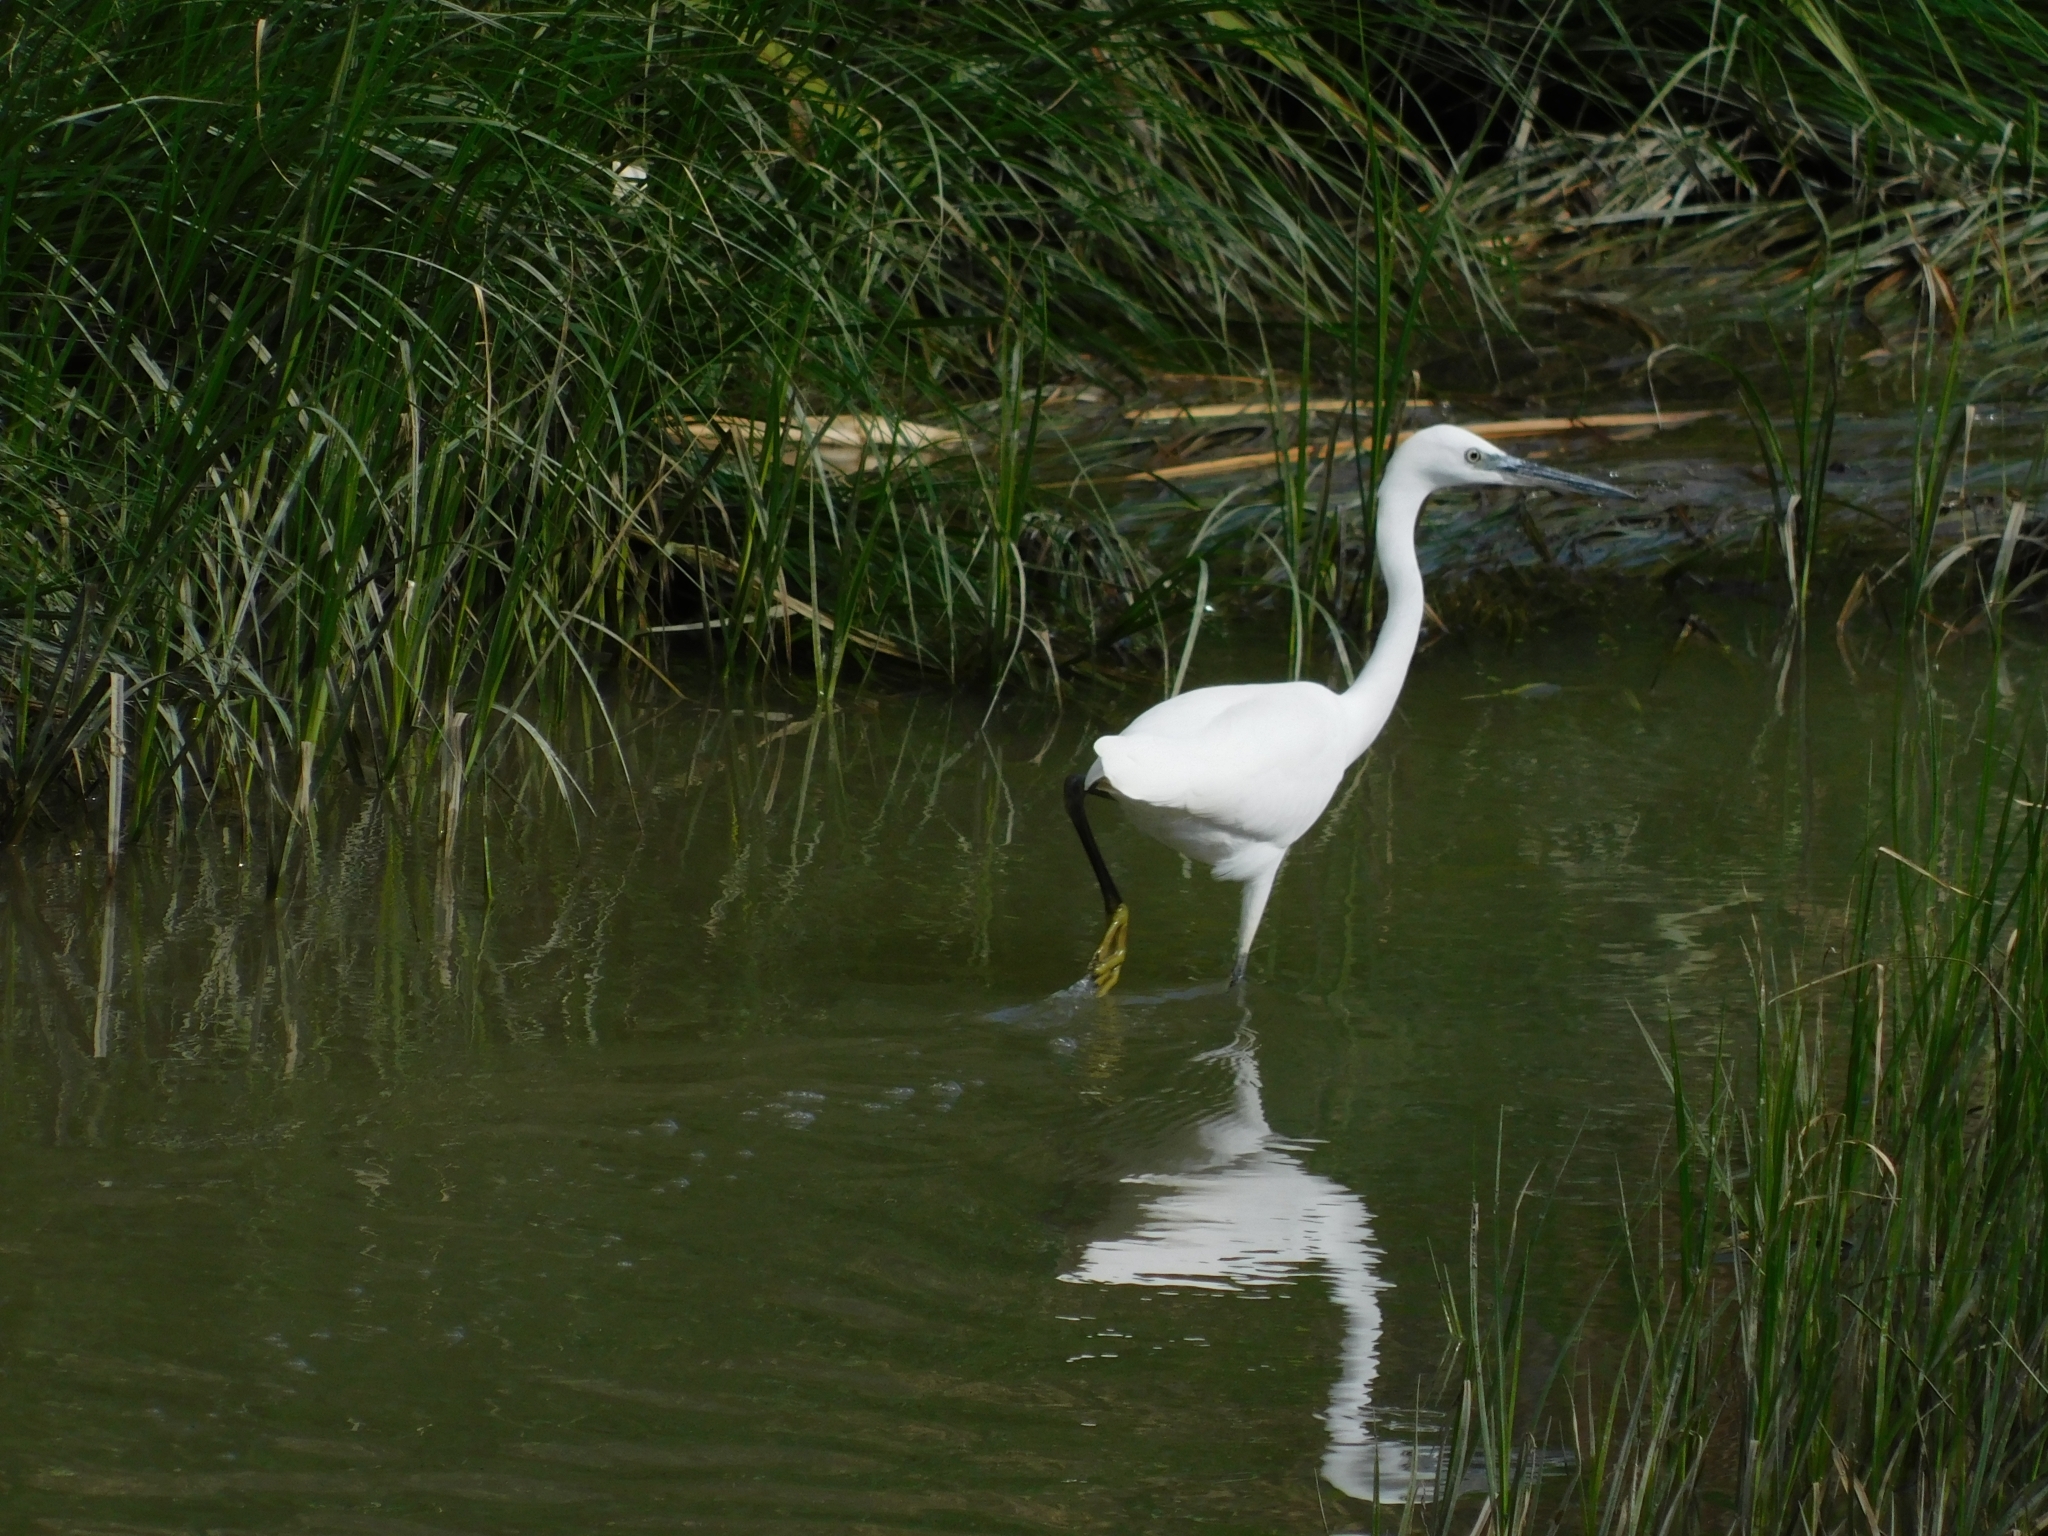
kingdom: Animalia
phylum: Chordata
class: Aves
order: Pelecaniformes
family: Ardeidae
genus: Egretta
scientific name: Egretta garzetta
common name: Little egret
